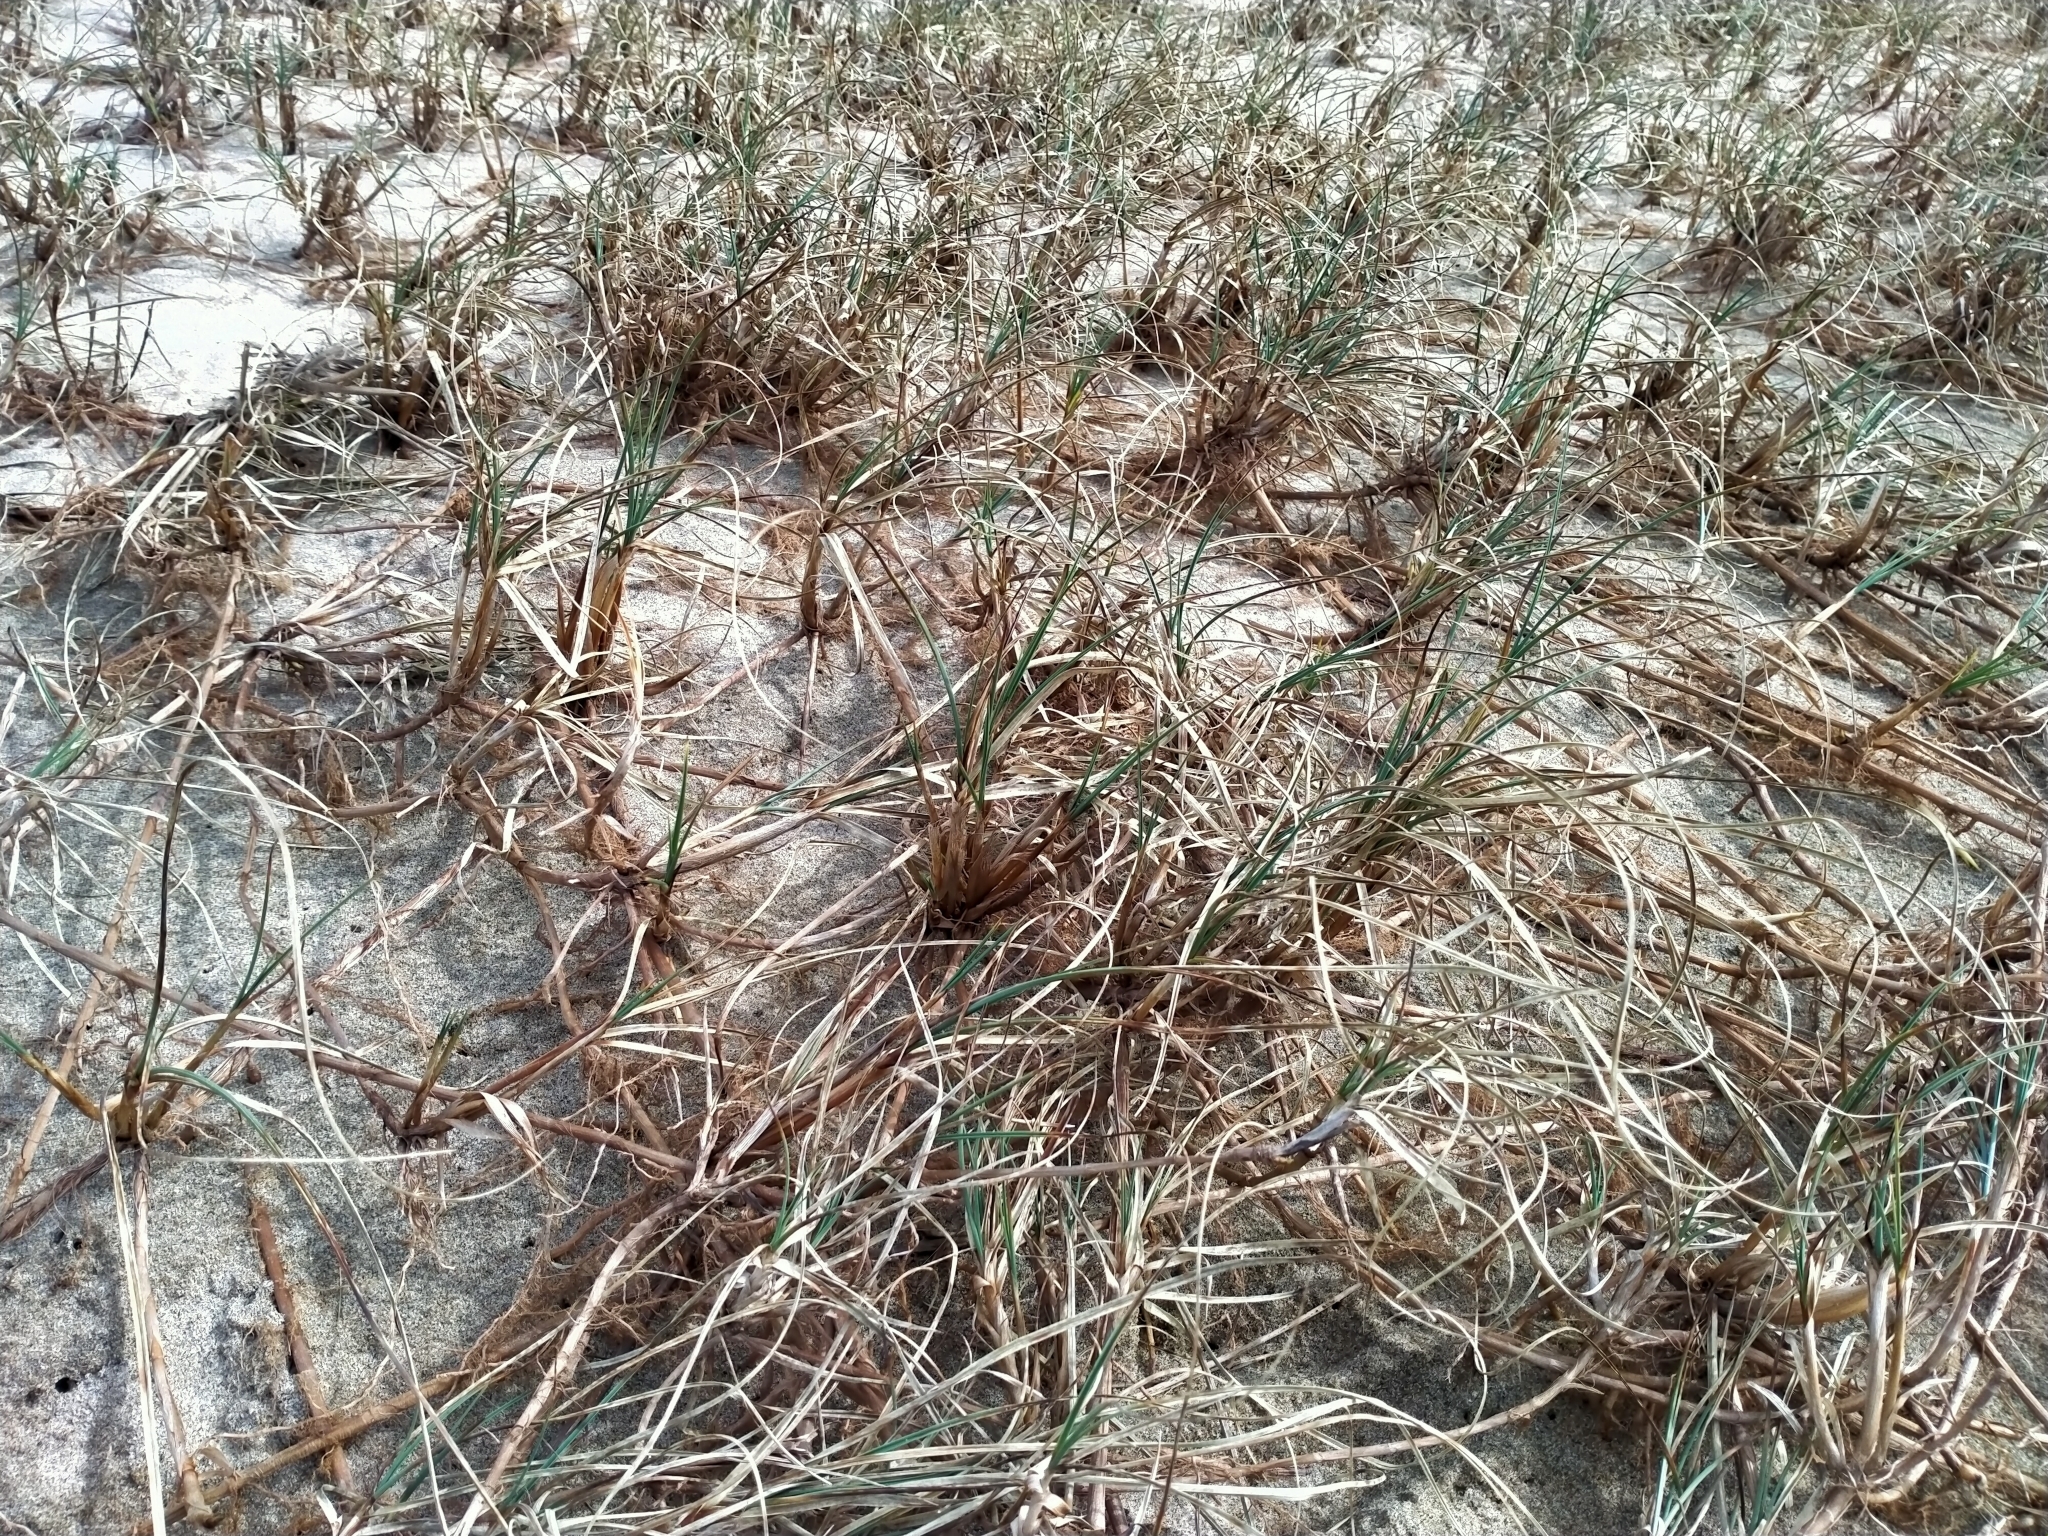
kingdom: Plantae
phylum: Tracheophyta
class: Liliopsida
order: Poales
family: Cyperaceae
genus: Carex
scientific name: Carex pumila
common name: Dwarf sedge
